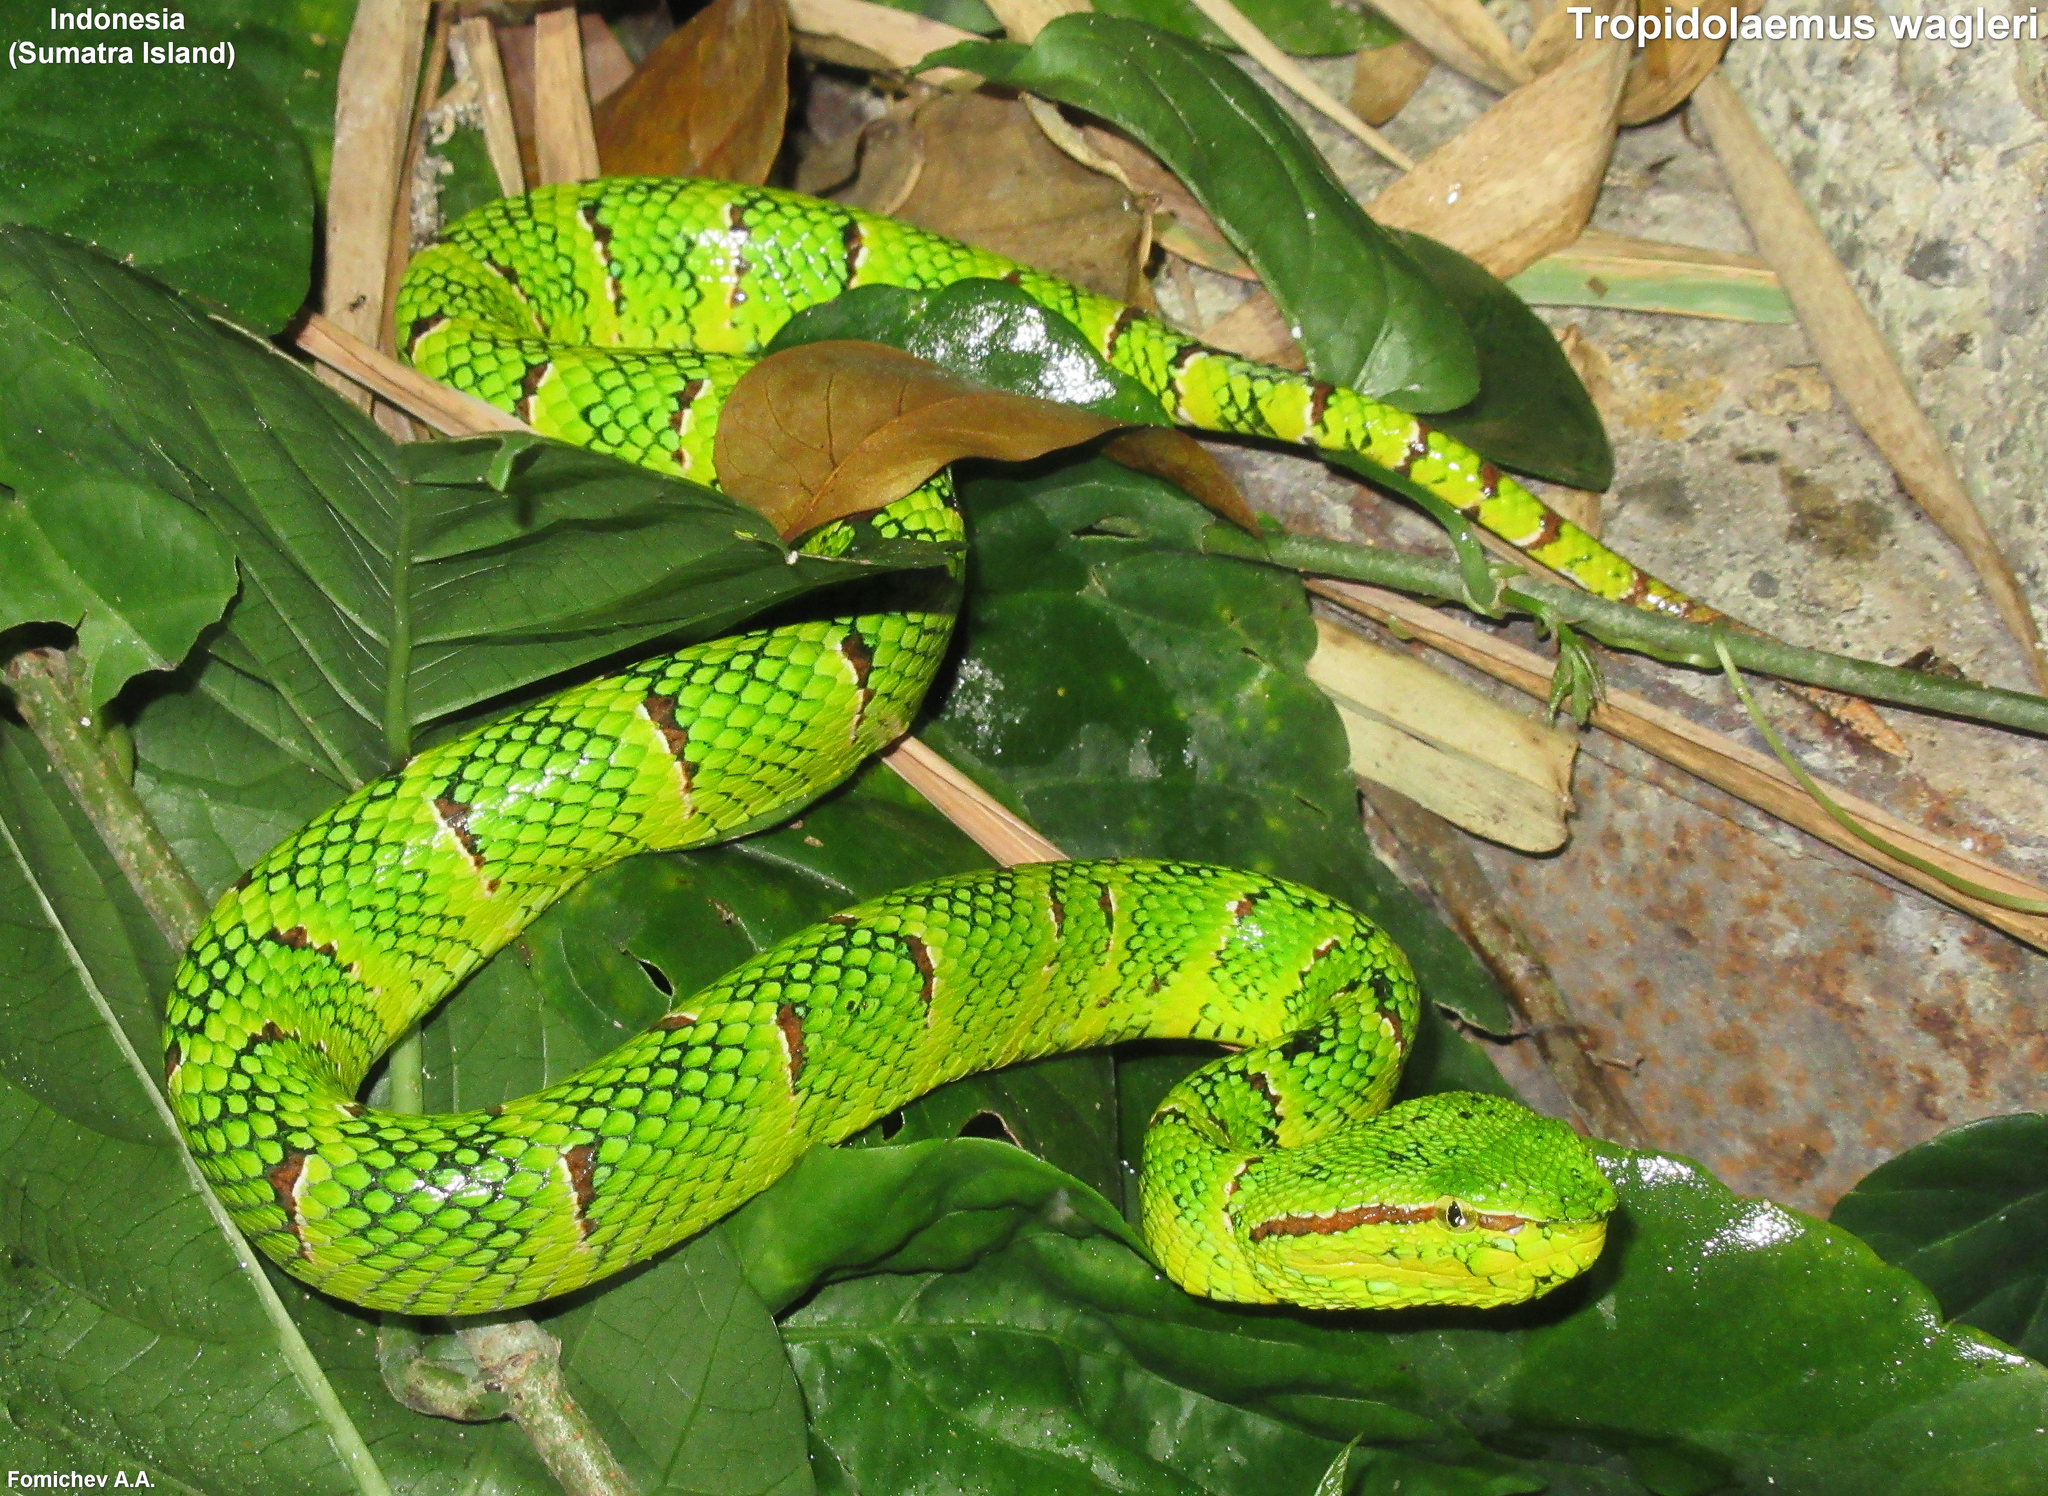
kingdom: Animalia
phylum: Chordata
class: Squamata
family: Viperidae
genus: Tropidolaemus
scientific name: Tropidolaemus wagleri
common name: Wagler's palm viper
